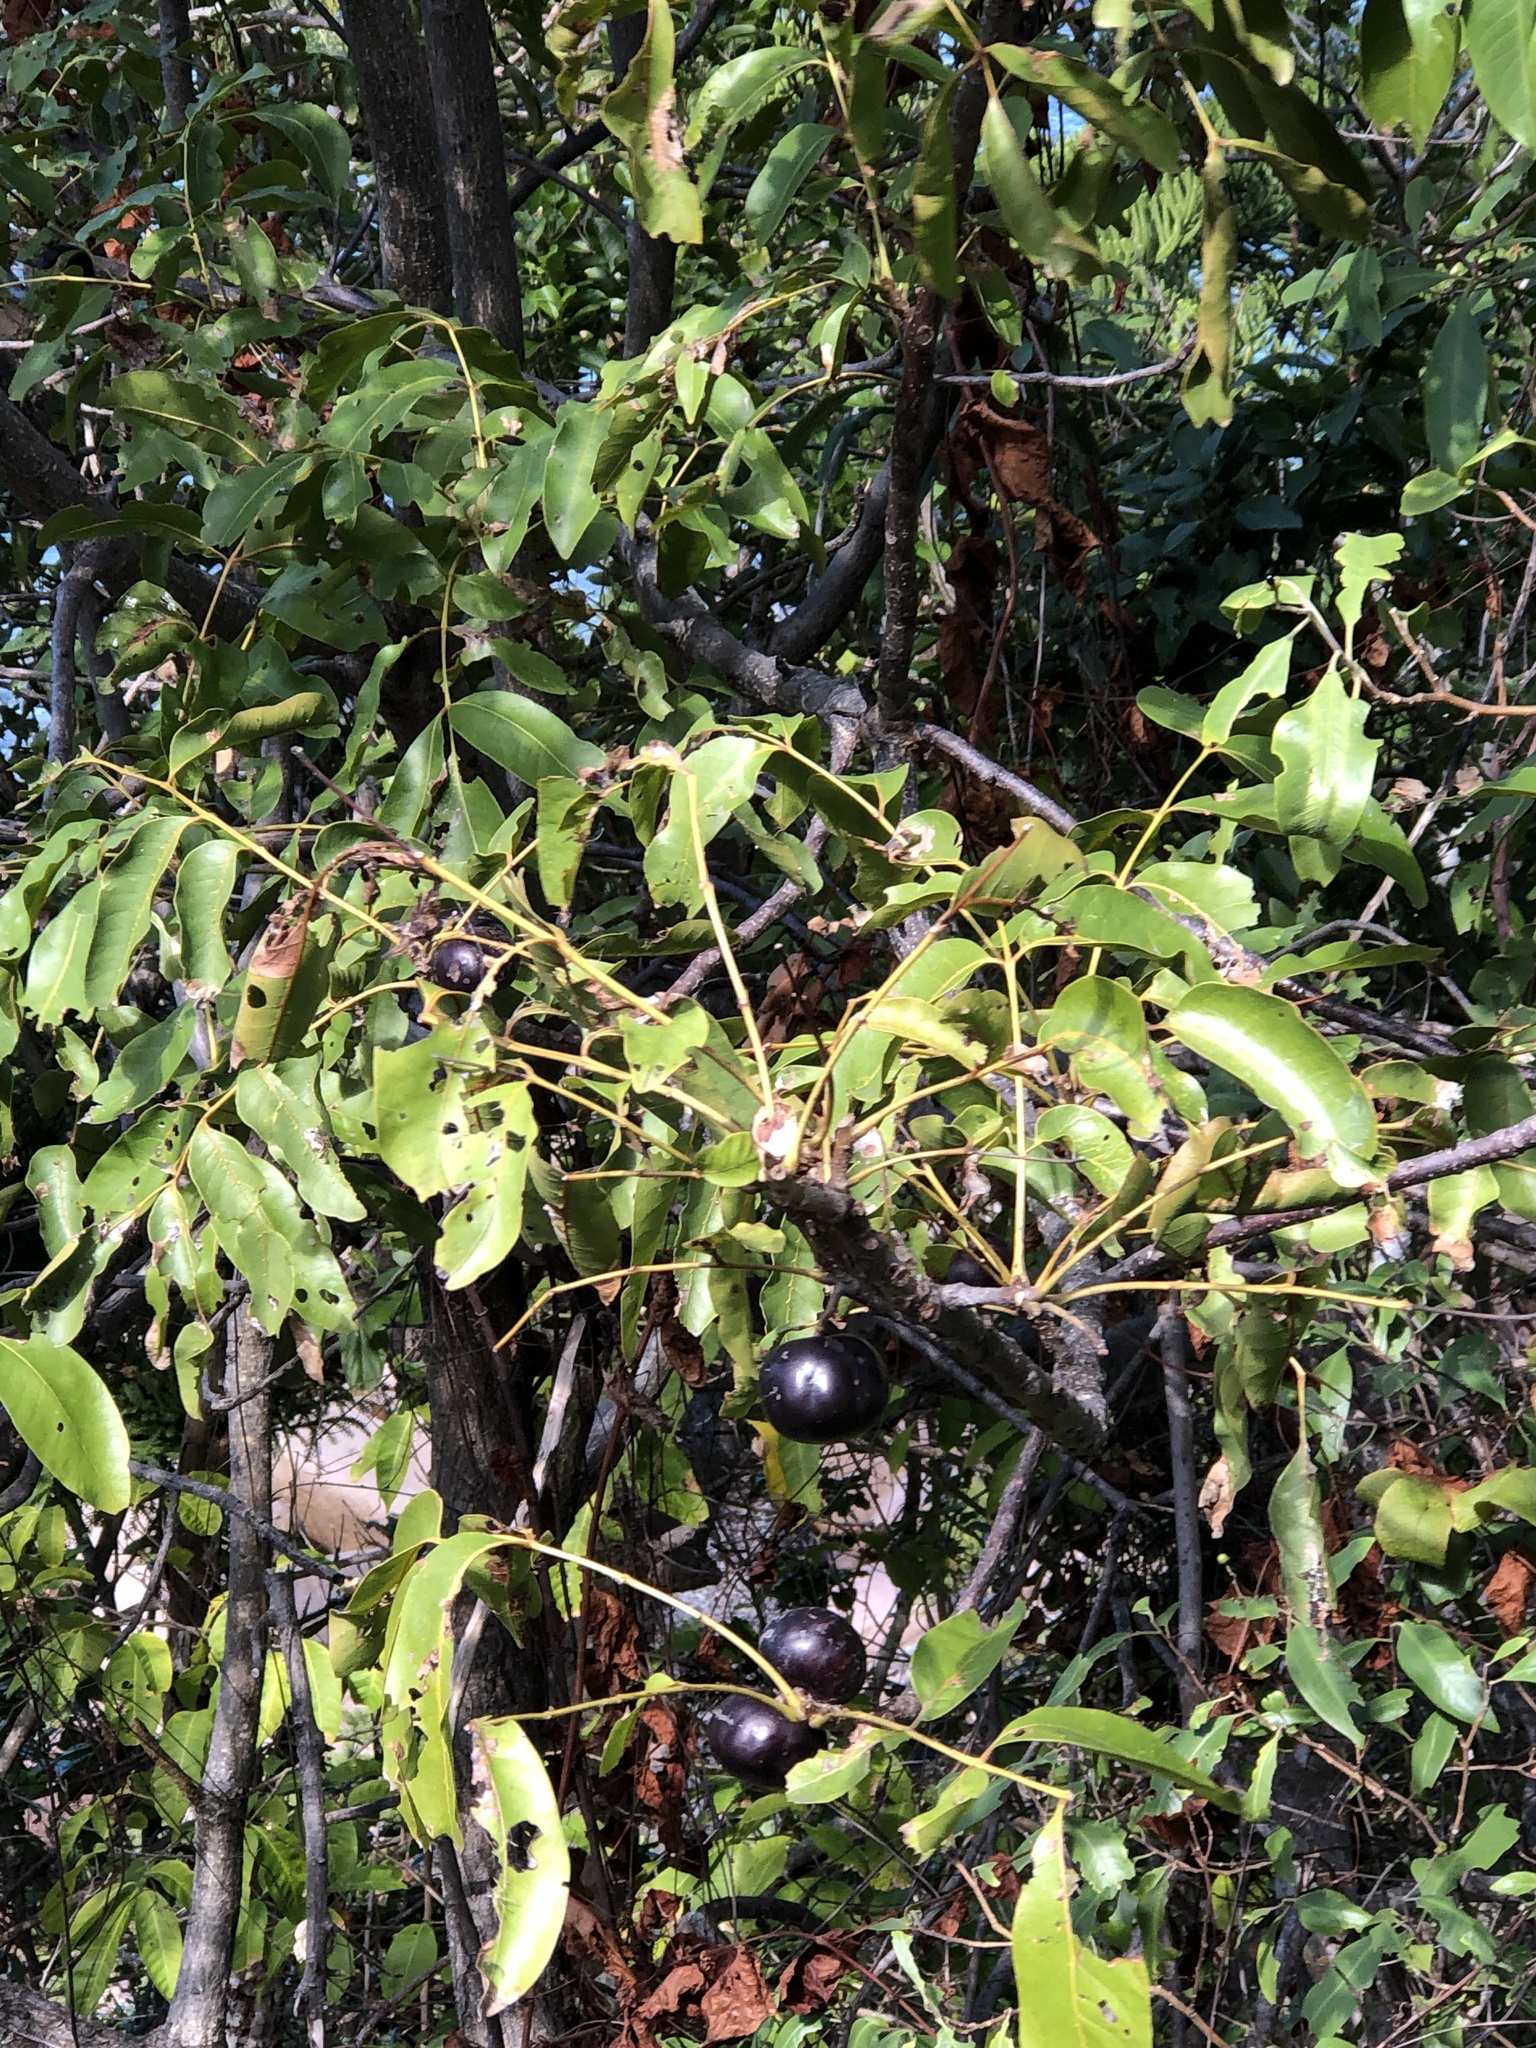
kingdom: Plantae
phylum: Tracheophyta
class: Magnoliopsida
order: Sapindales
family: Anacardiaceae
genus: Pleiogynium
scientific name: Pleiogynium timoriense
